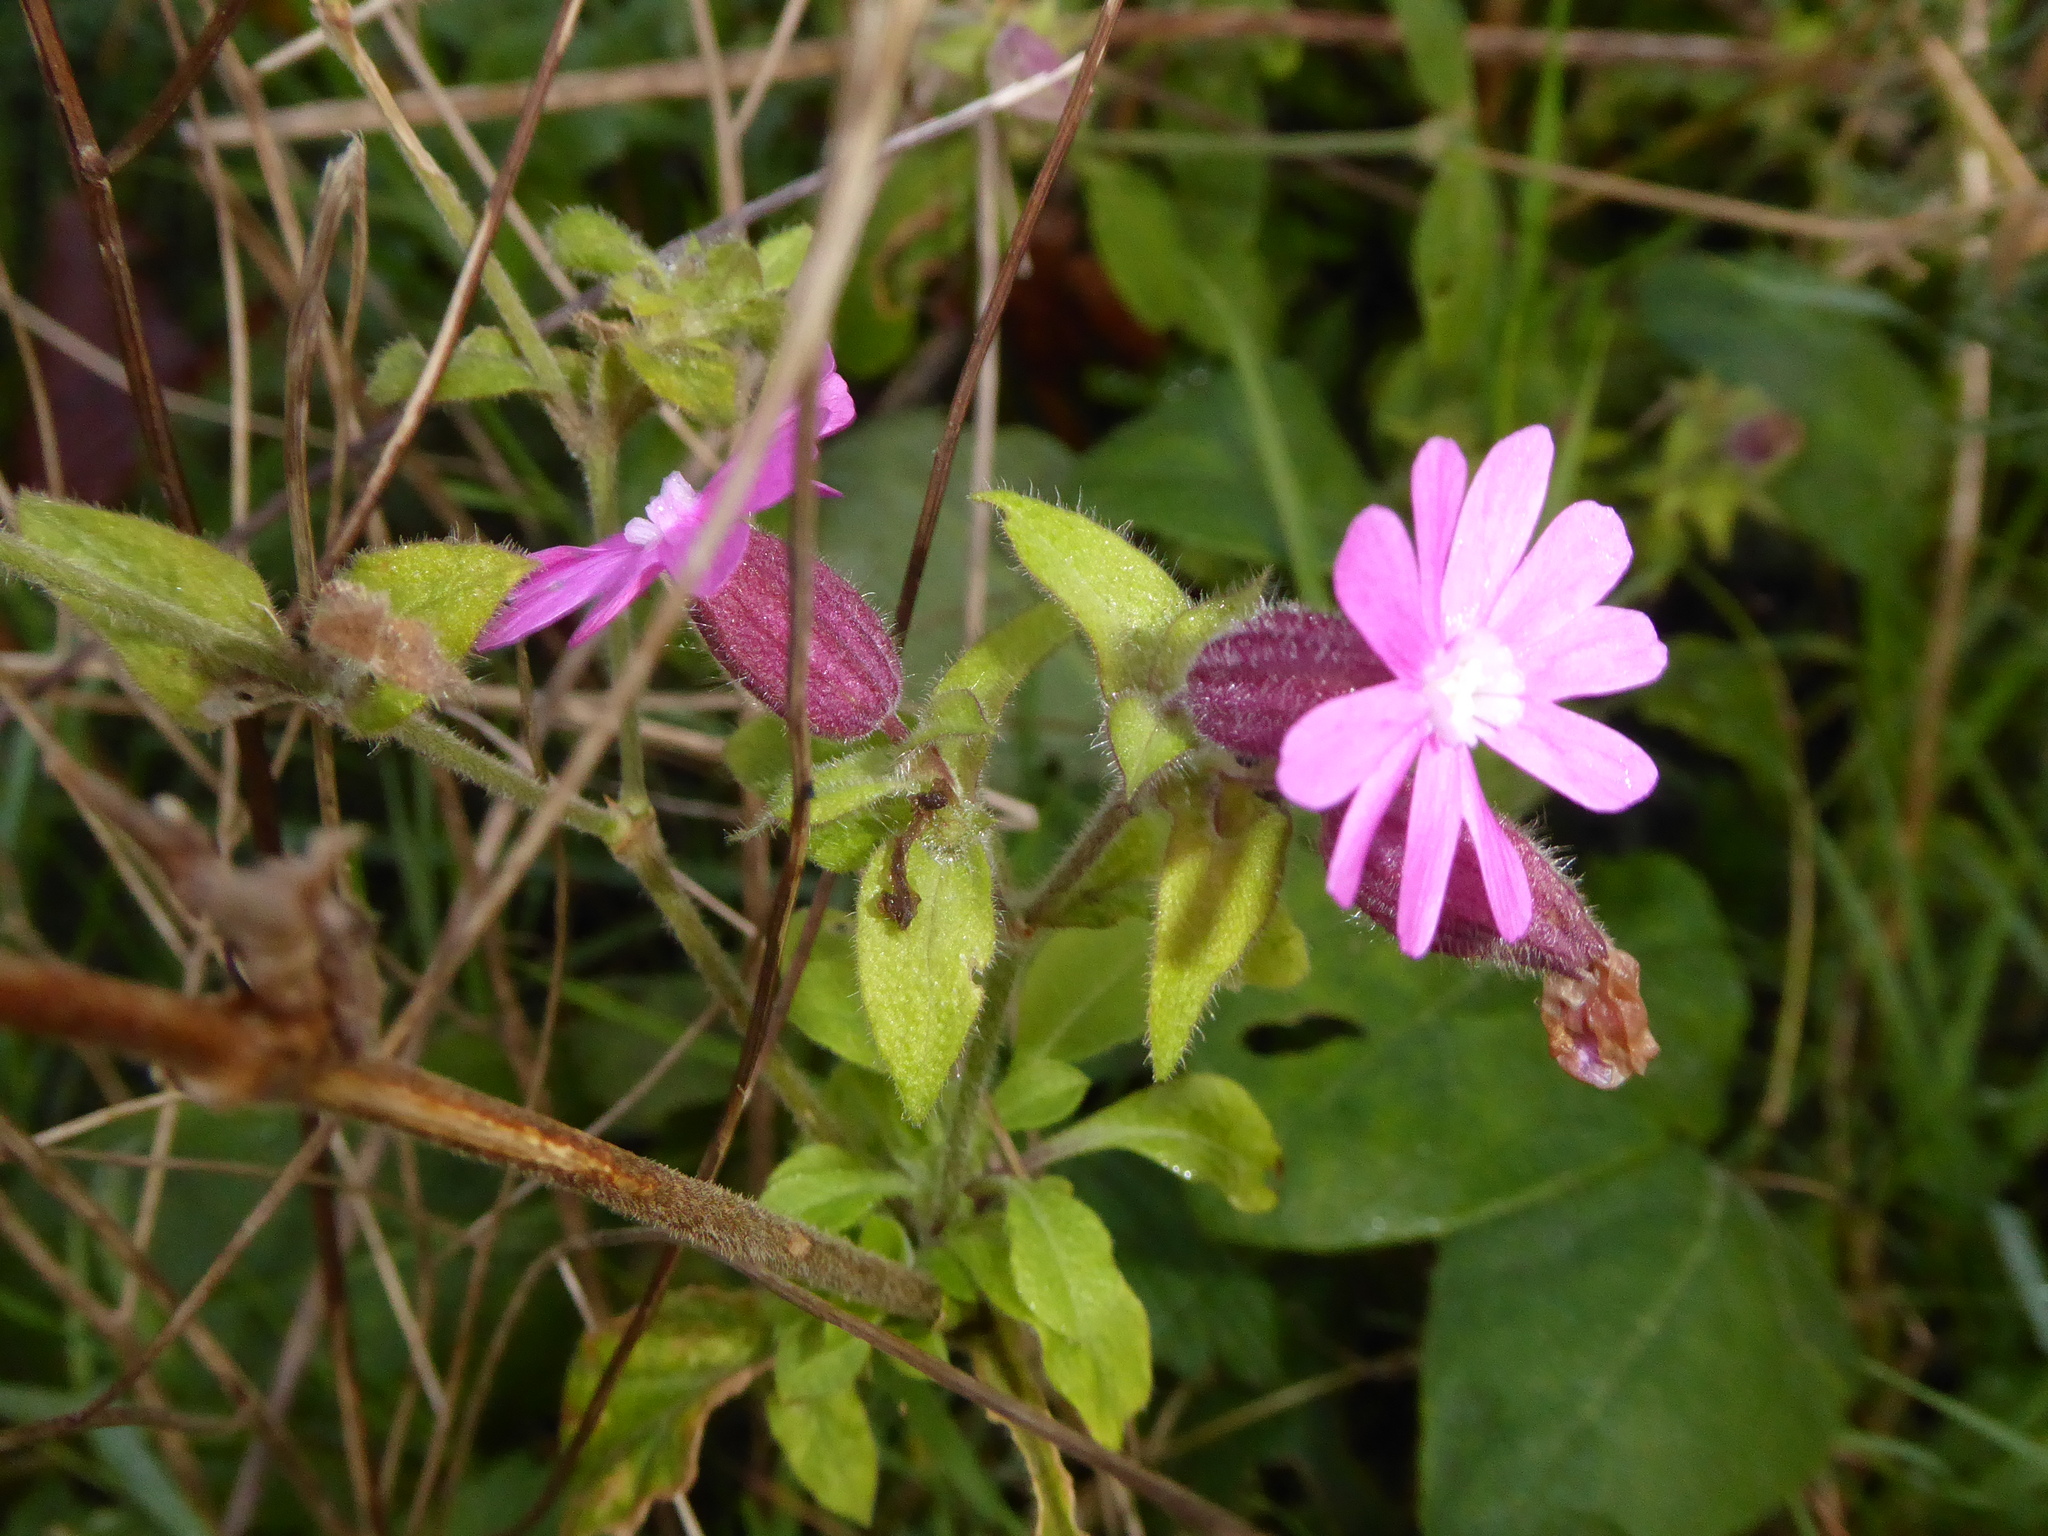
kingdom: Plantae
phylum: Tracheophyta
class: Magnoliopsida
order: Caryophyllales
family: Caryophyllaceae
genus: Silene
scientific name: Silene dioica
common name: Red campion
